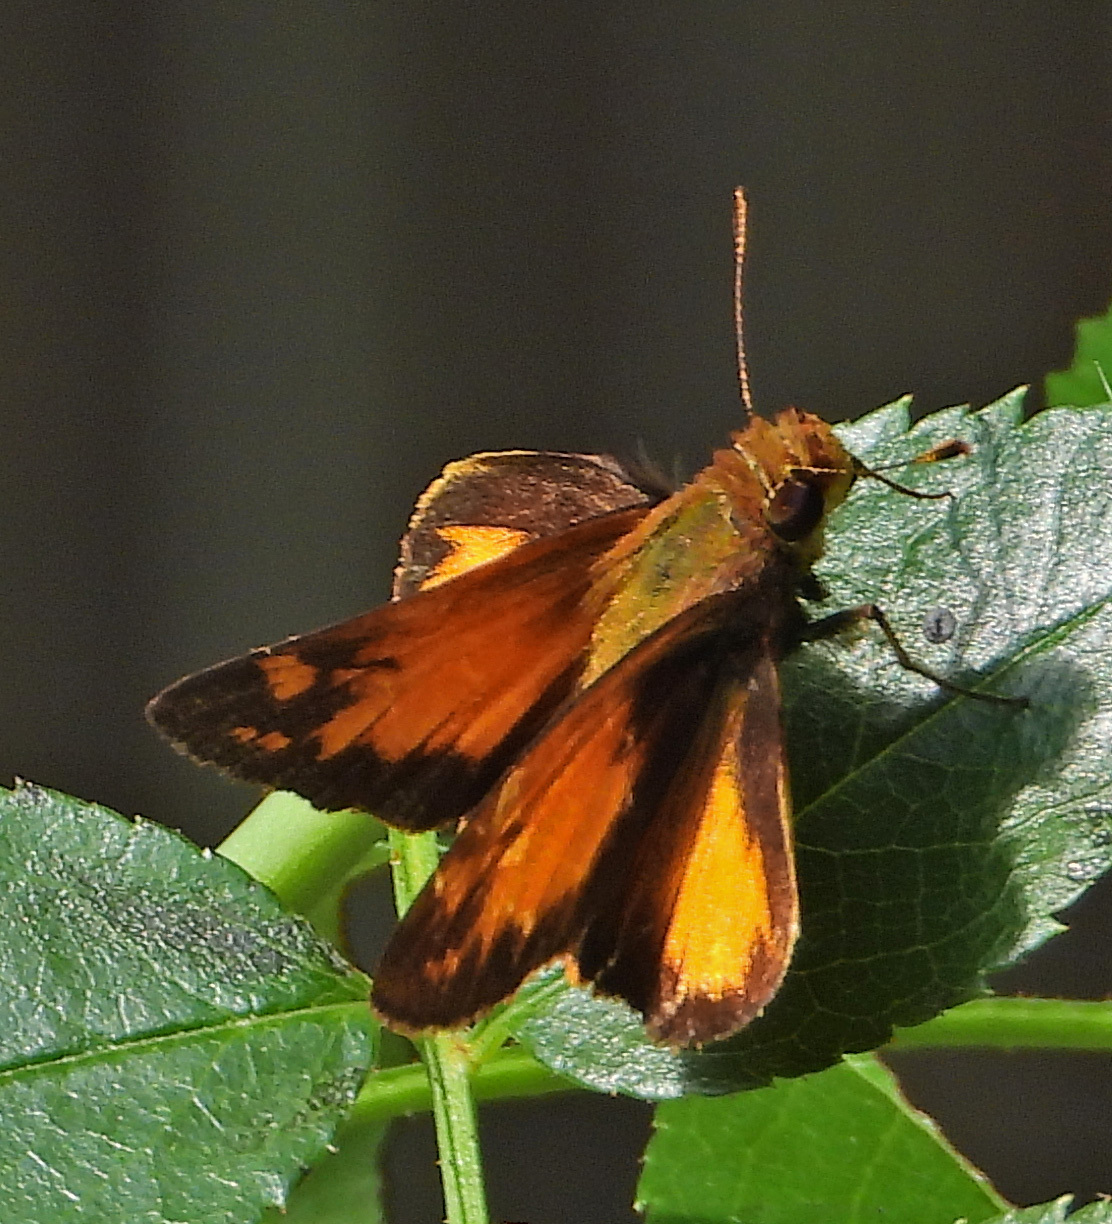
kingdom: Animalia
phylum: Arthropoda
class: Insecta
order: Lepidoptera
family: Hesperiidae
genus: Lon
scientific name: Lon zabulon
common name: Zabulon skipper
